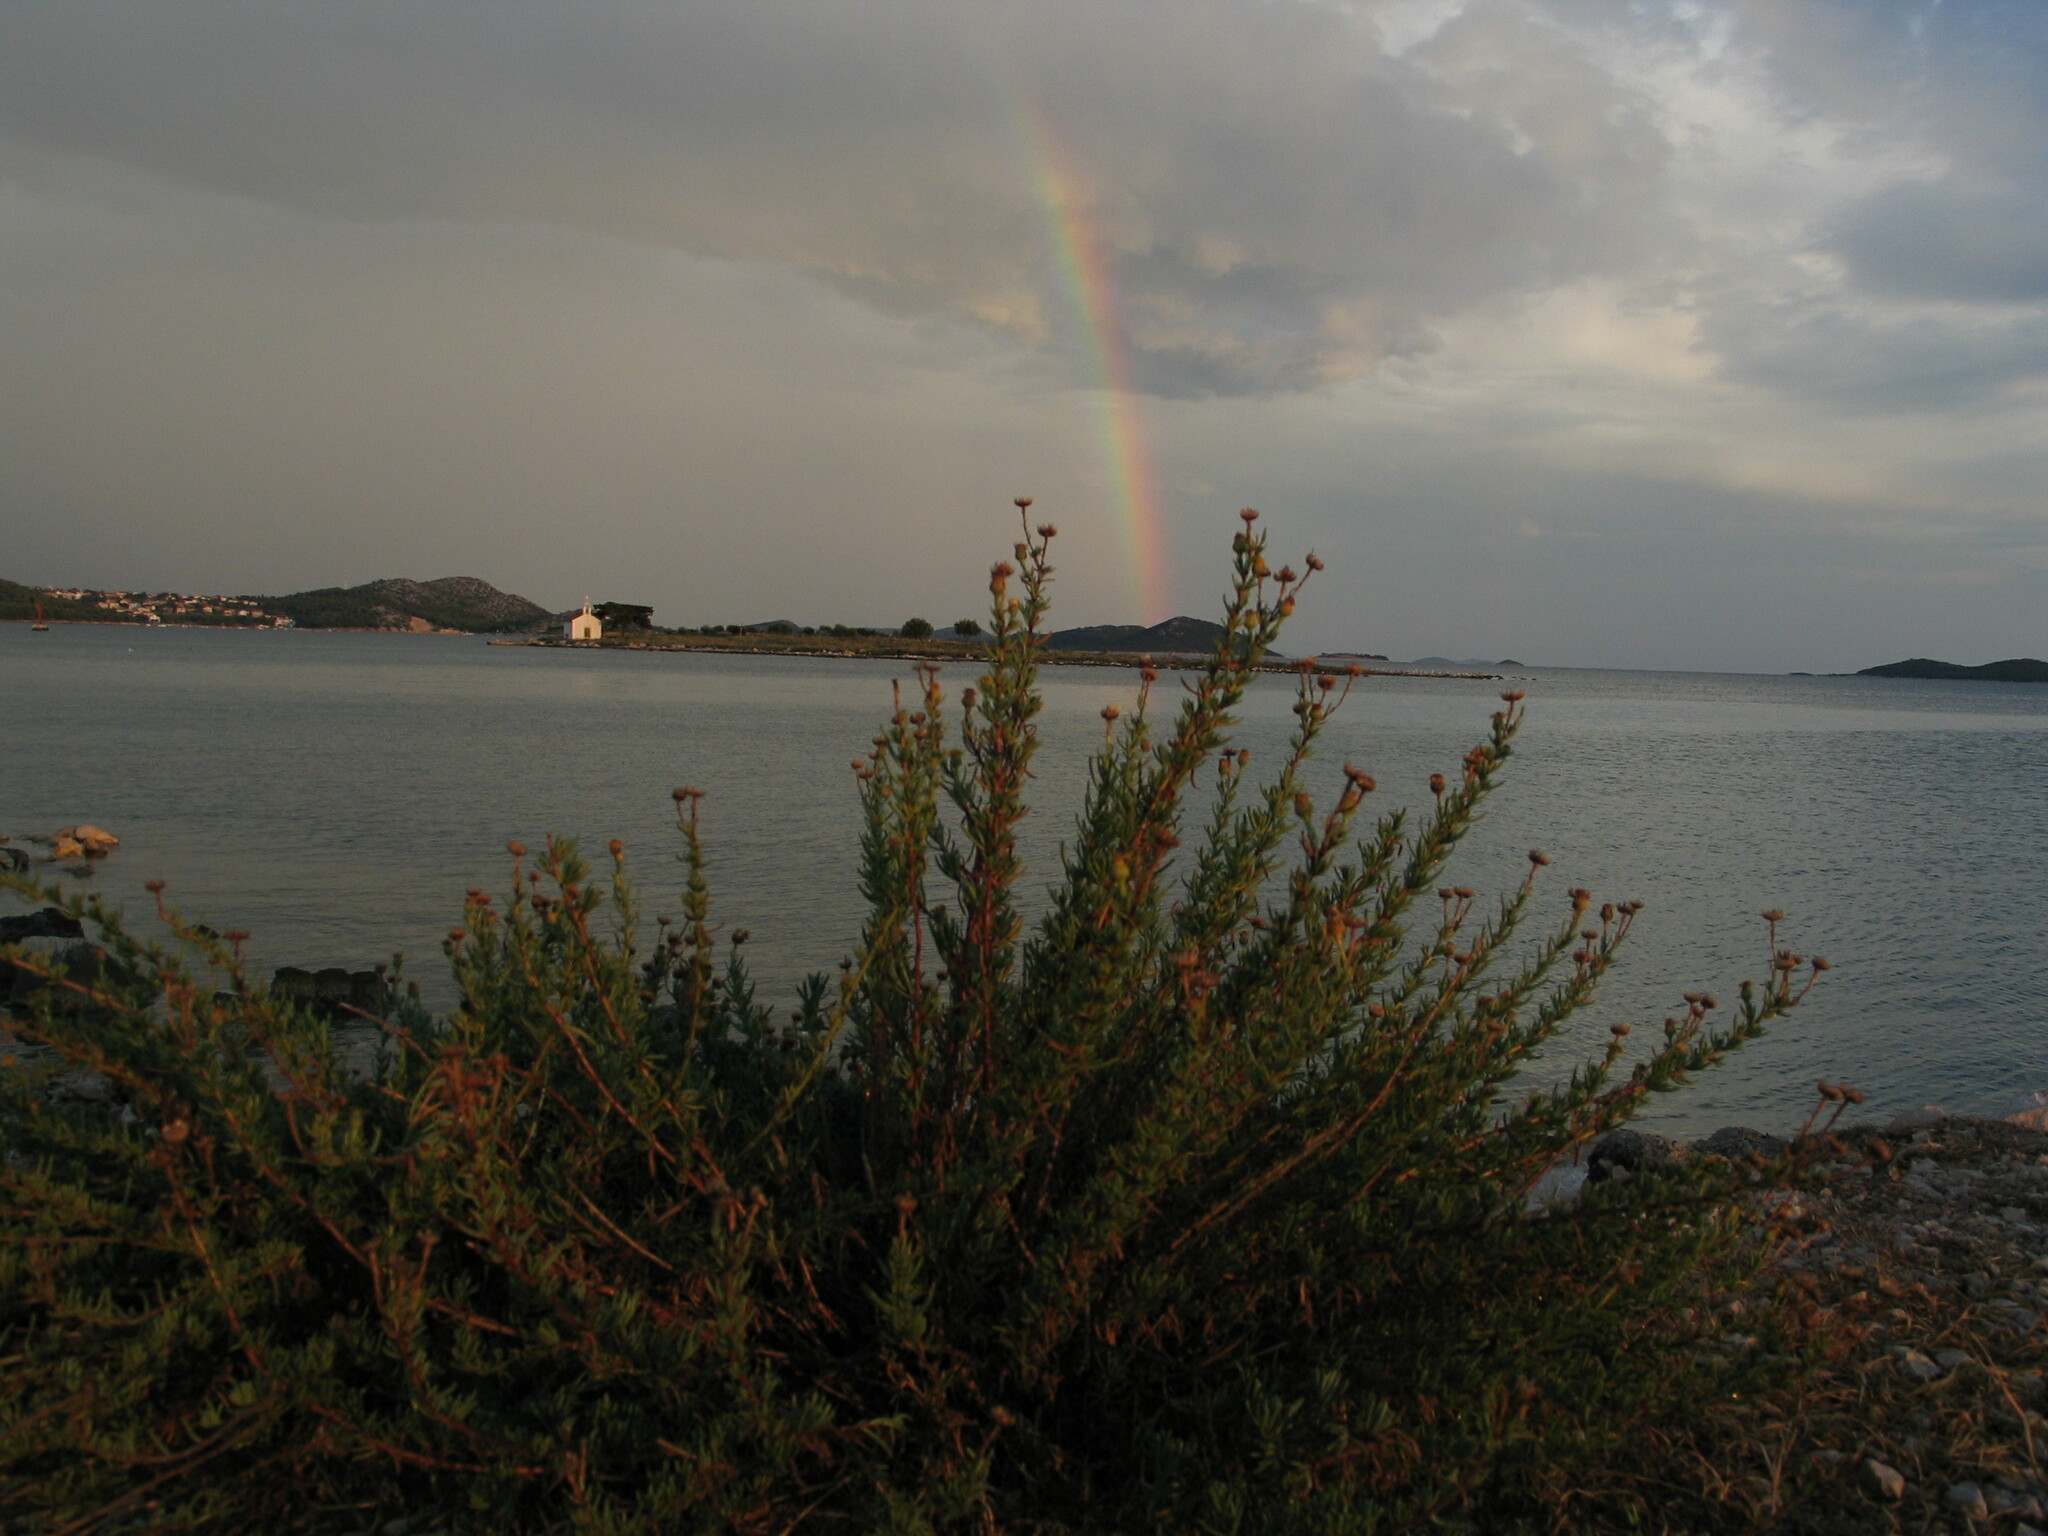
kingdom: Plantae
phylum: Tracheophyta
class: Magnoliopsida
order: Asterales
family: Asteraceae
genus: Limbarda
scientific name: Limbarda crithmoides
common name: Golden samphire
